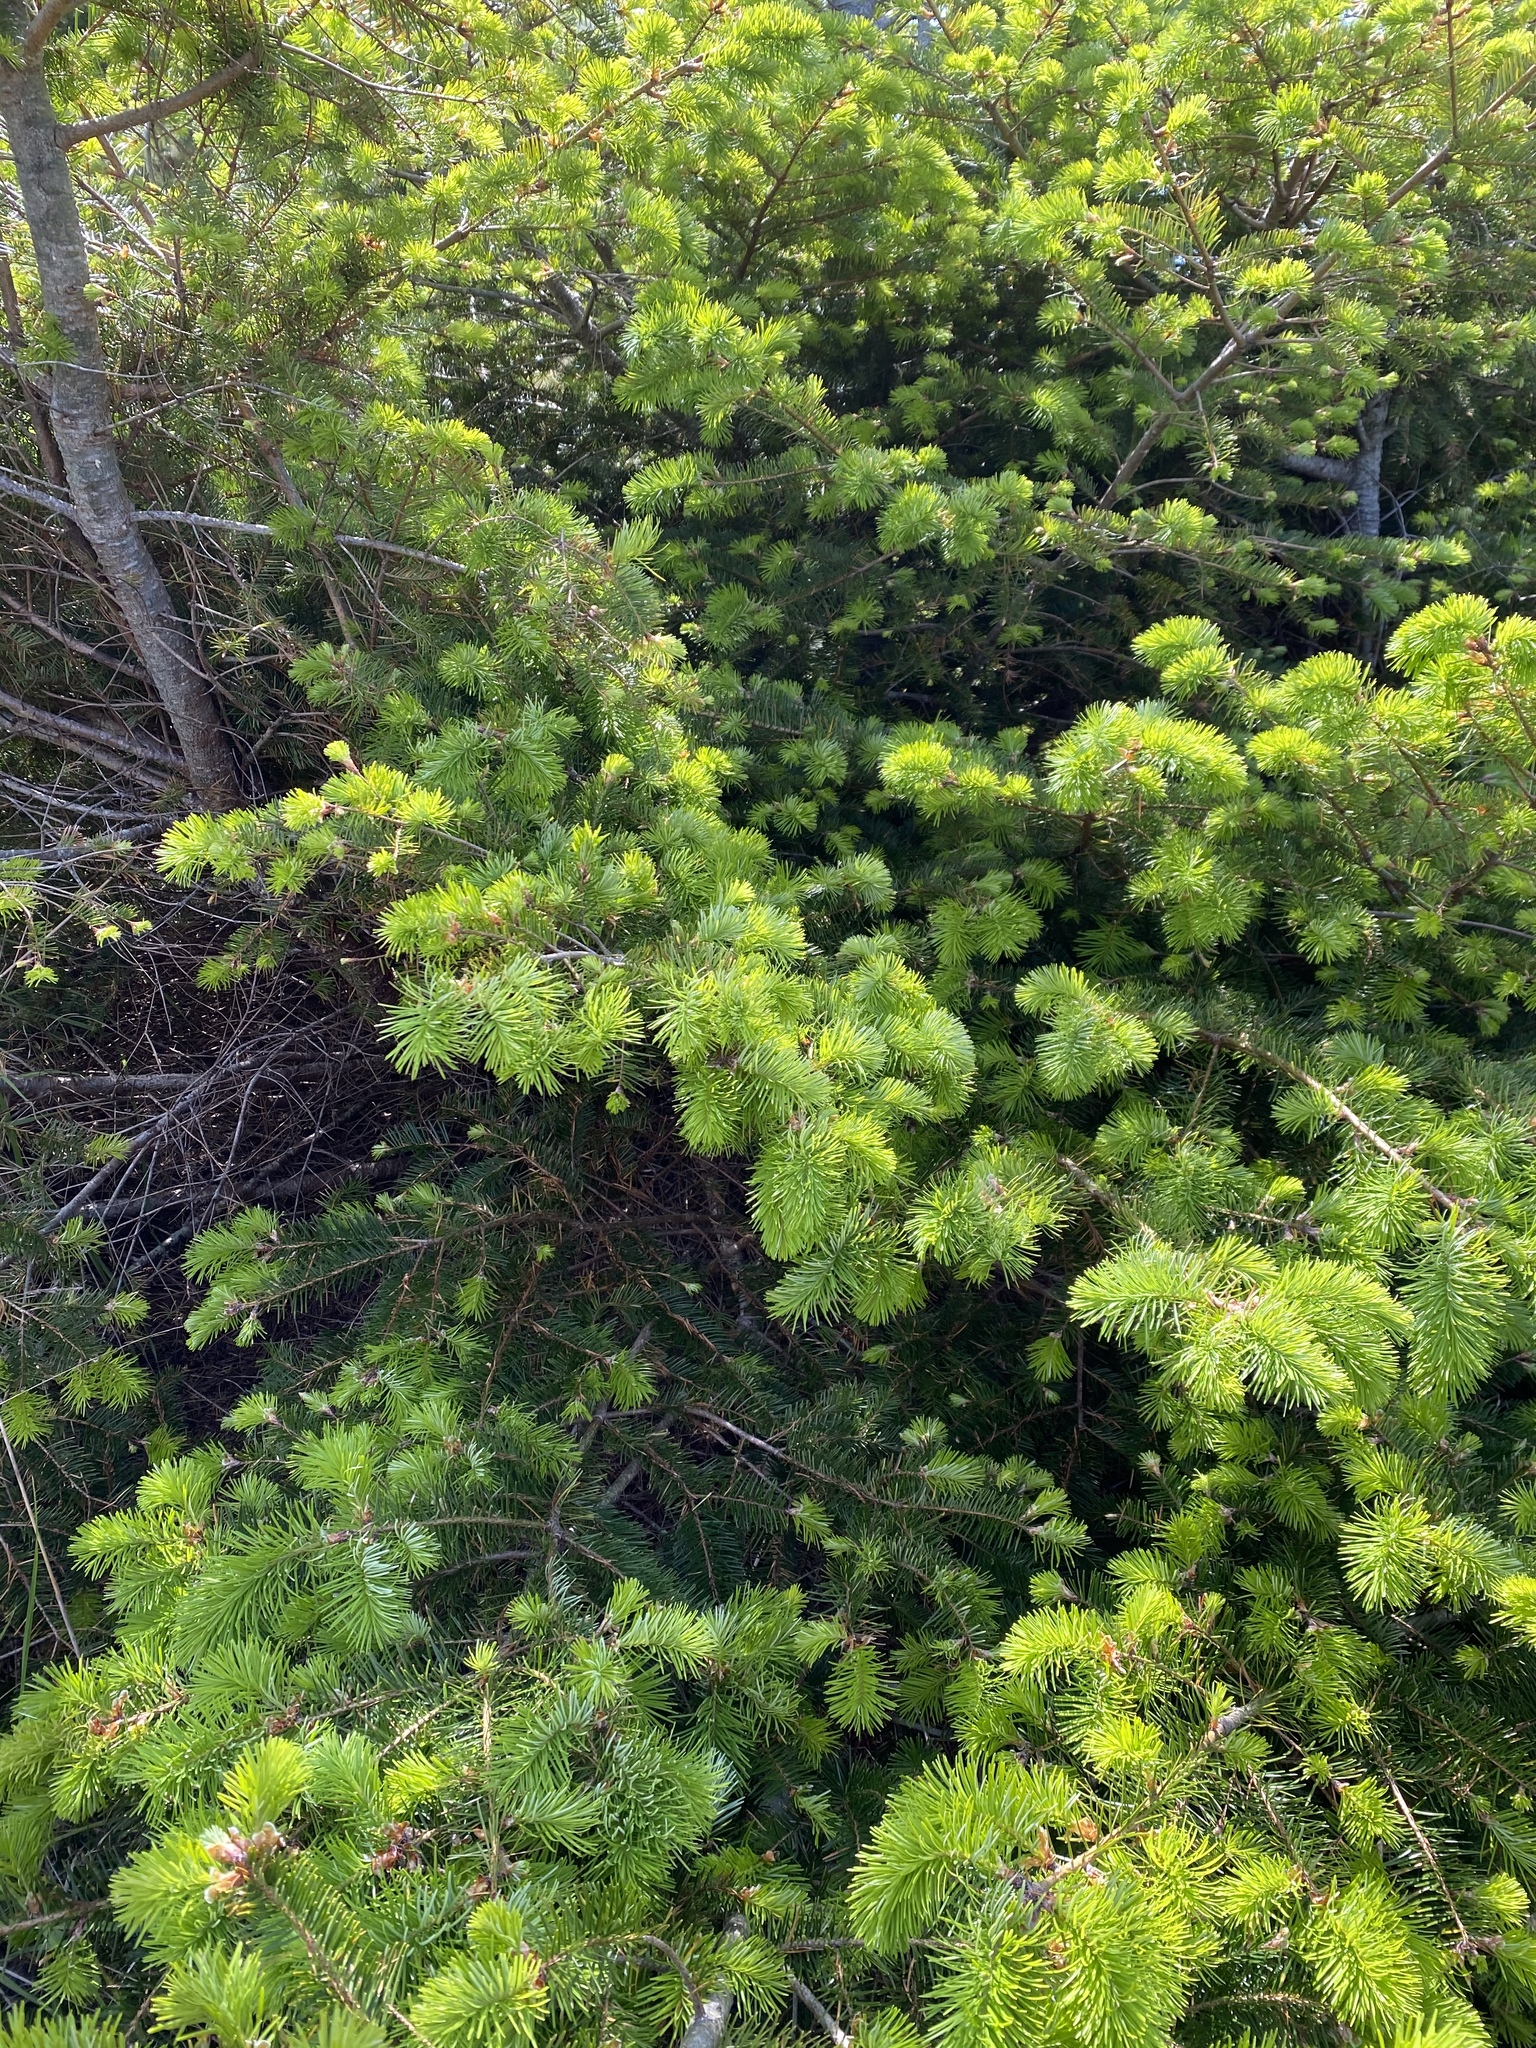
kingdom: Plantae
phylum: Tracheophyta
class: Pinopsida
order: Pinales
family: Pinaceae
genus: Pseudotsuga
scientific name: Pseudotsuga menziesii
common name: Douglas fir
